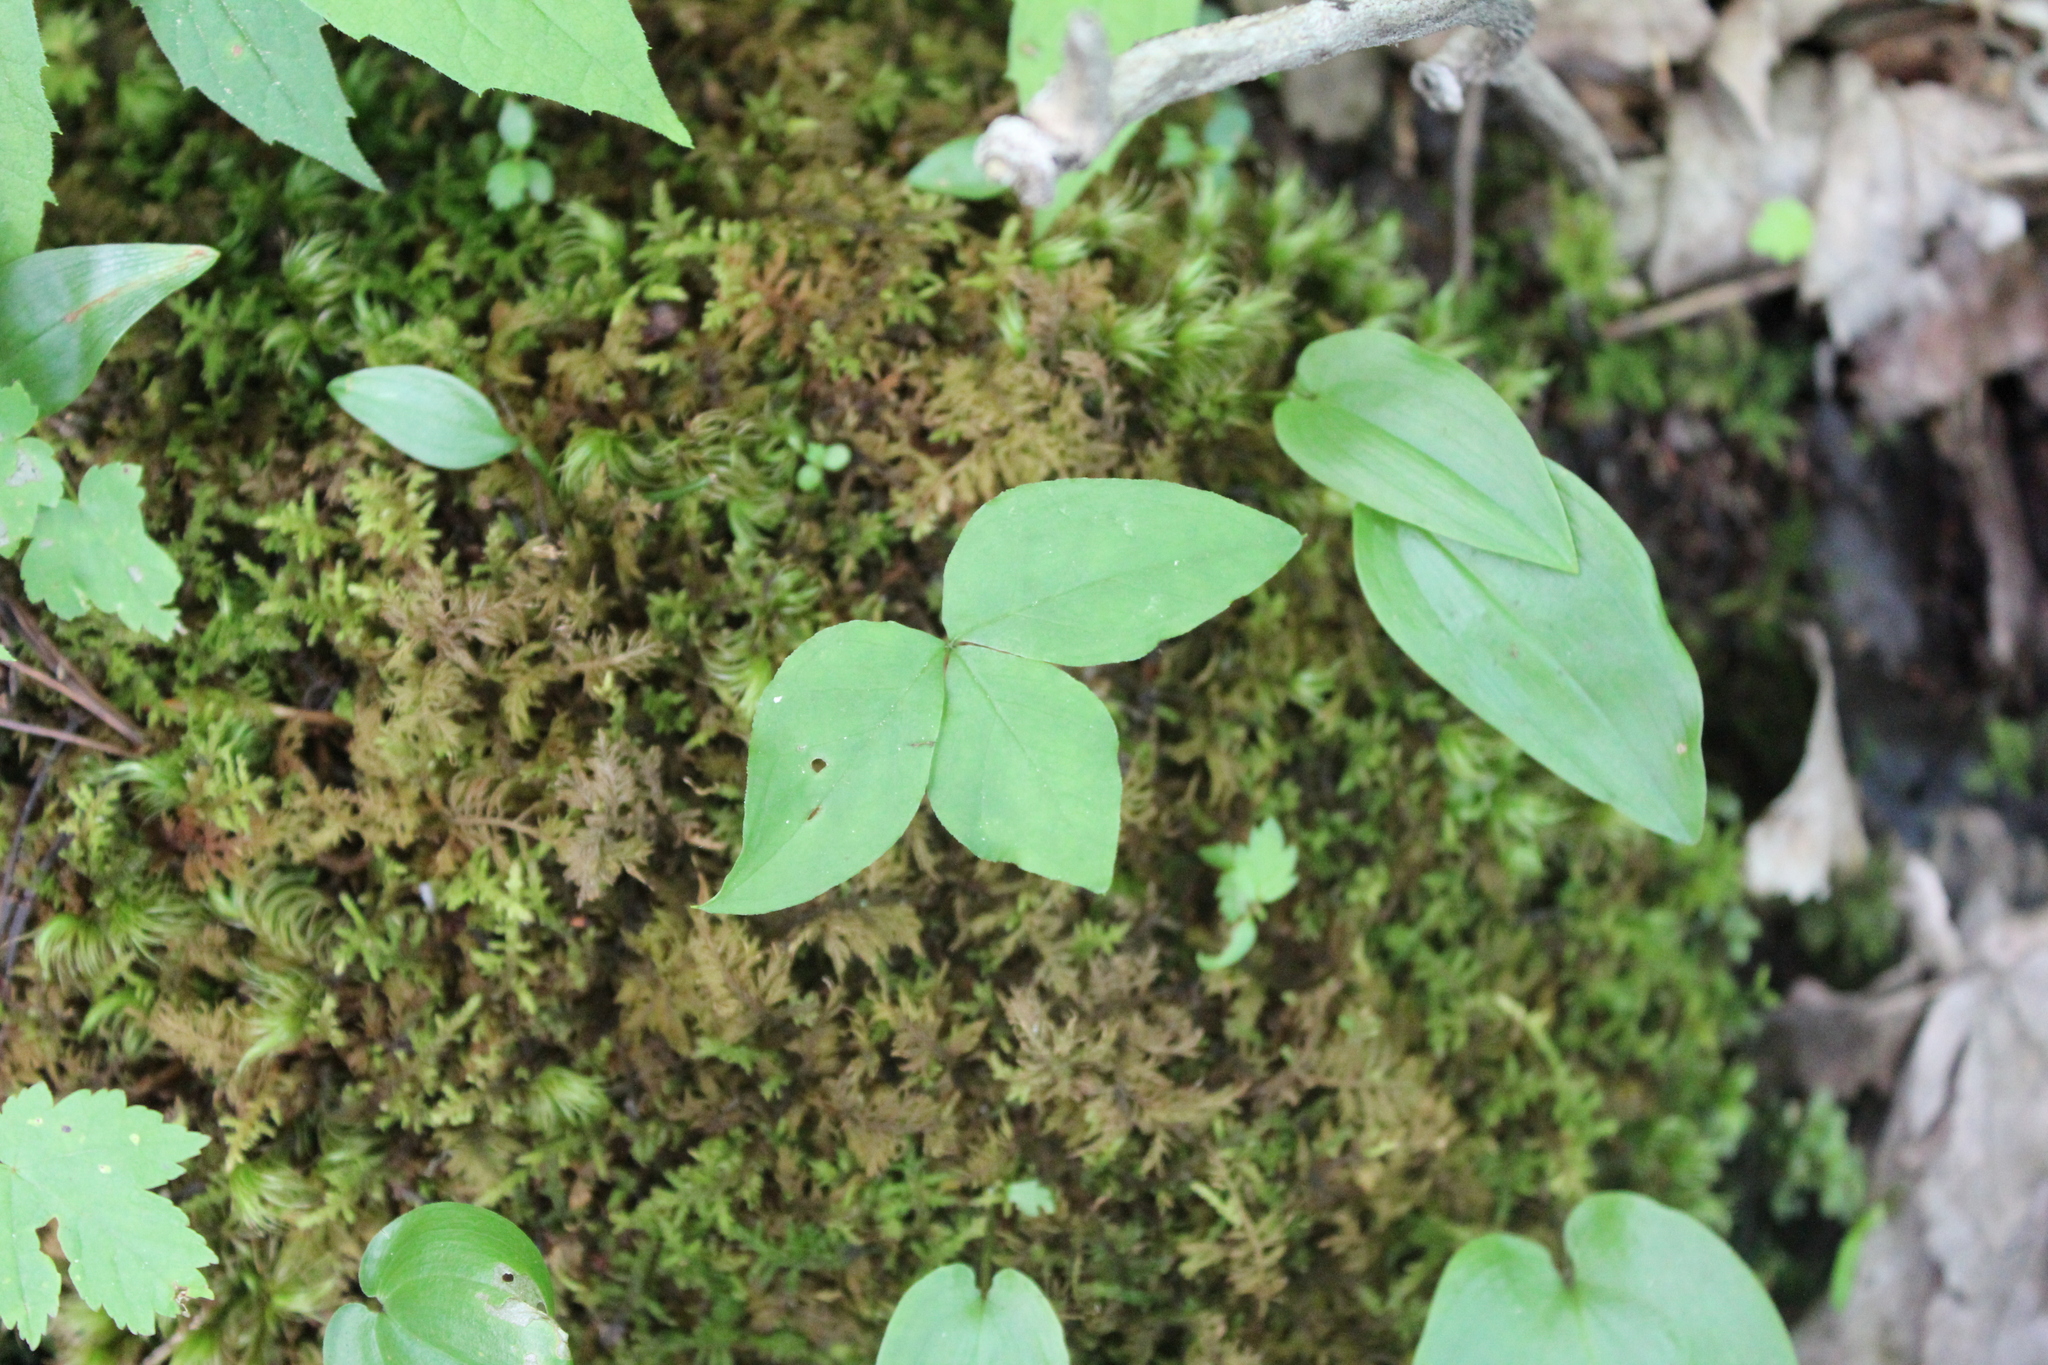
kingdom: Plantae
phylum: Tracheophyta
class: Liliopsida
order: Alismatales
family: Araceae
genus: Arisaema
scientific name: Arisaema triphyllum
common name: Jack-in-the-pulpit
